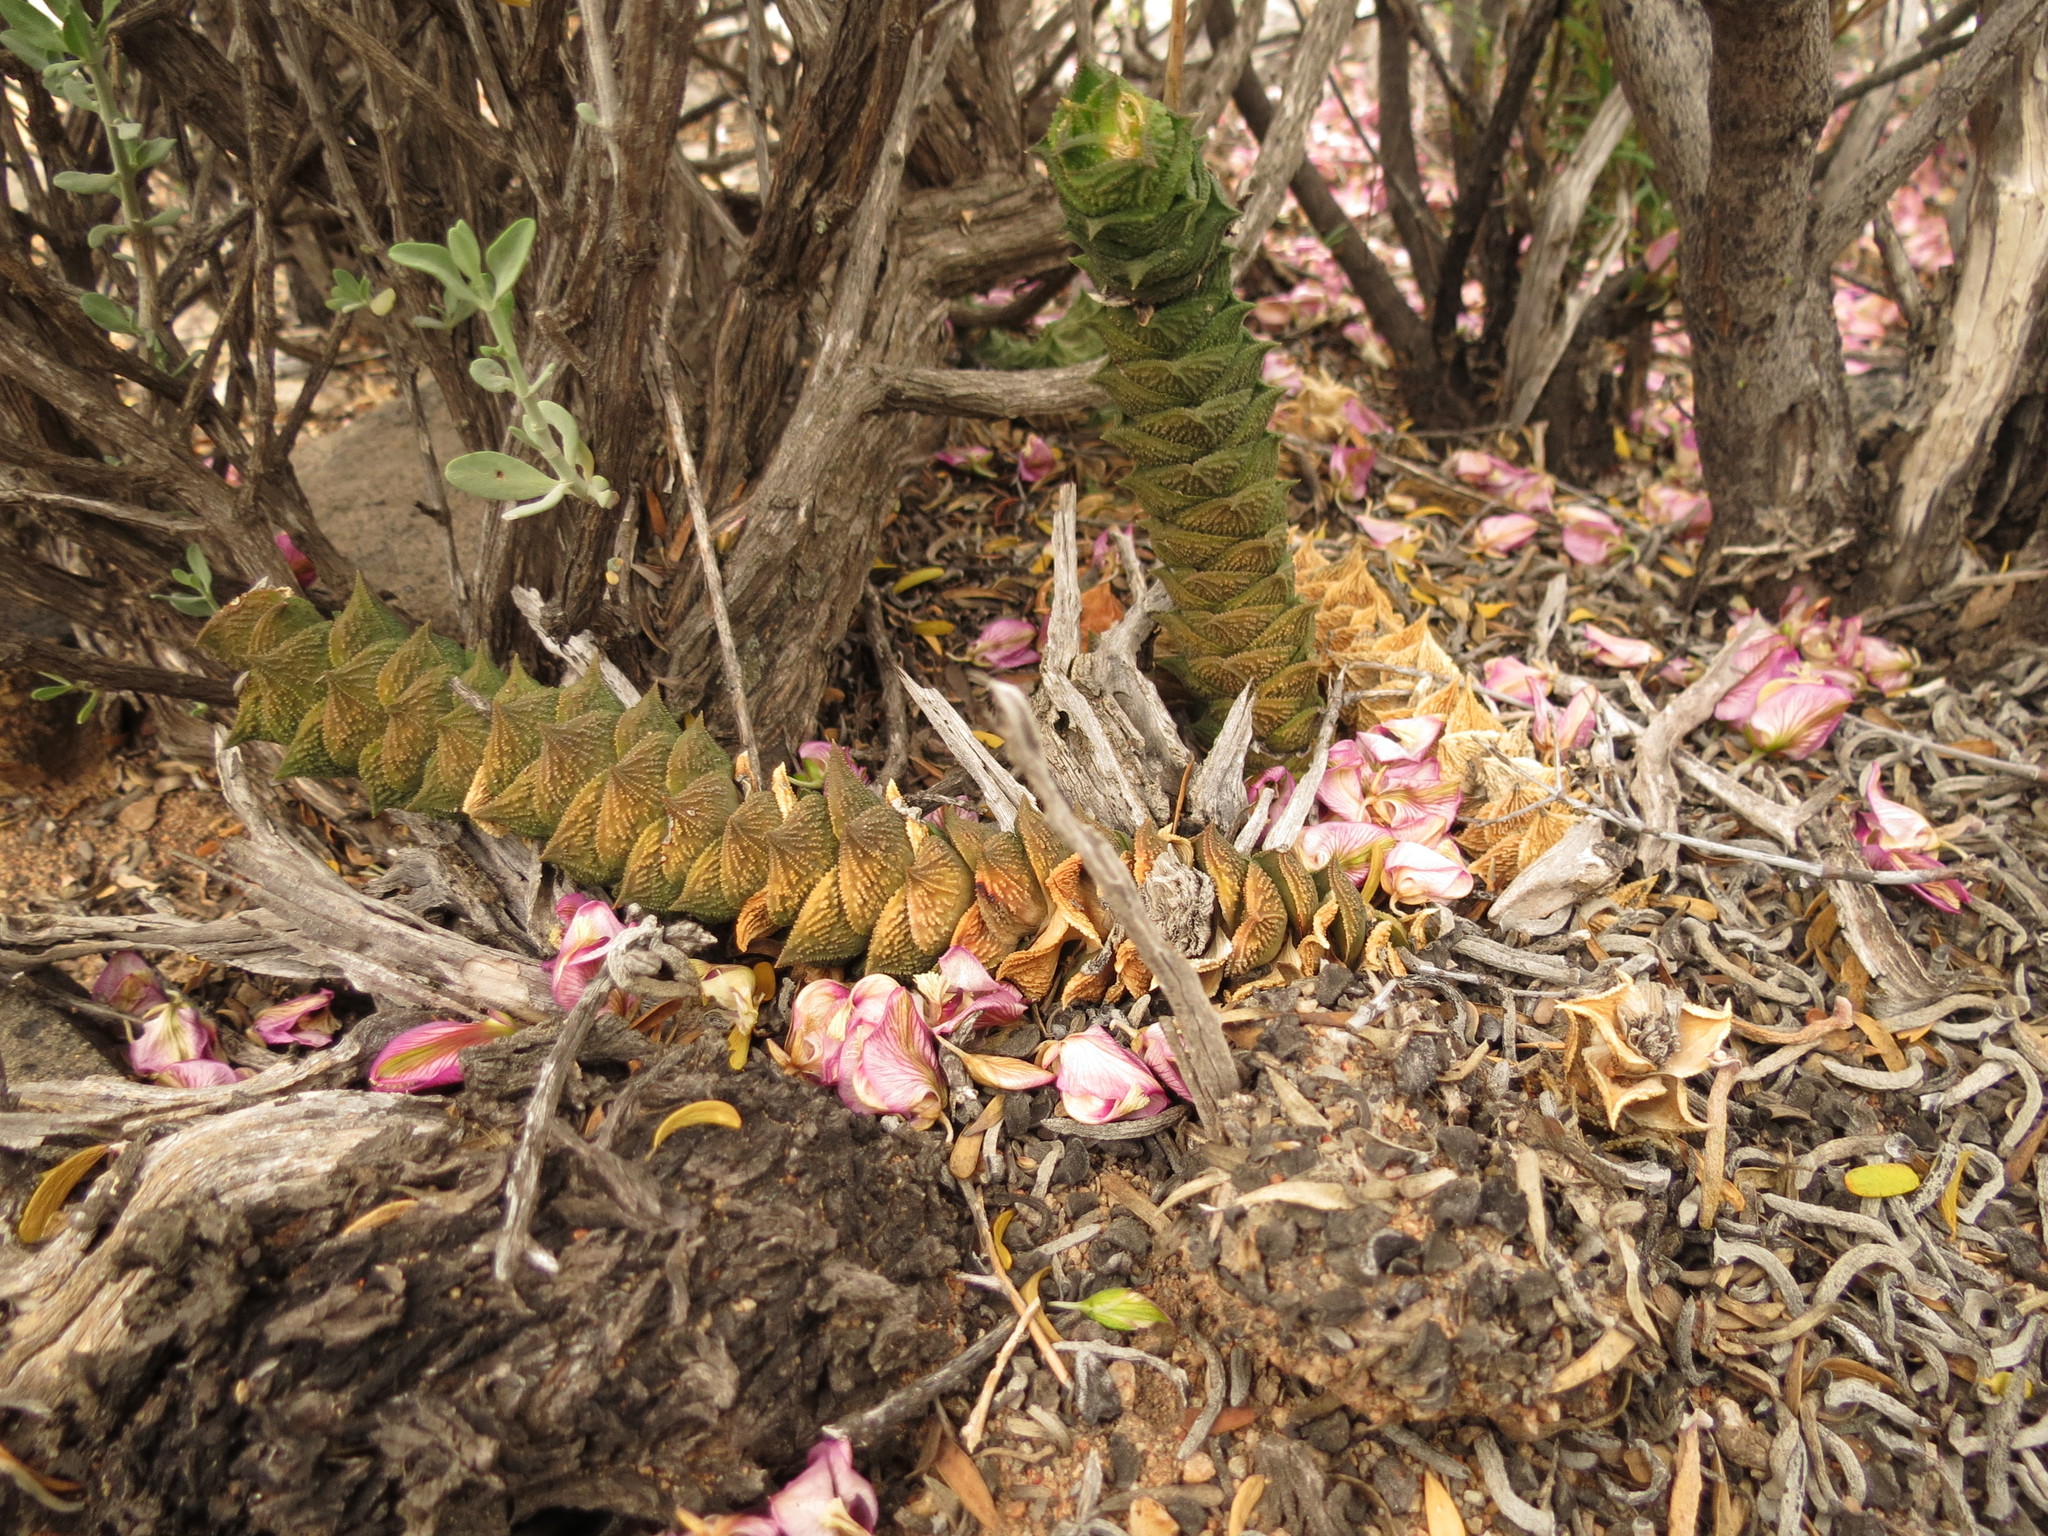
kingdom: Plantae
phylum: Tracheophyta
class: Liliopsida
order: Asparagales
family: Asphodelaceae
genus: Astroloba
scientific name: Astroloba corrugata
